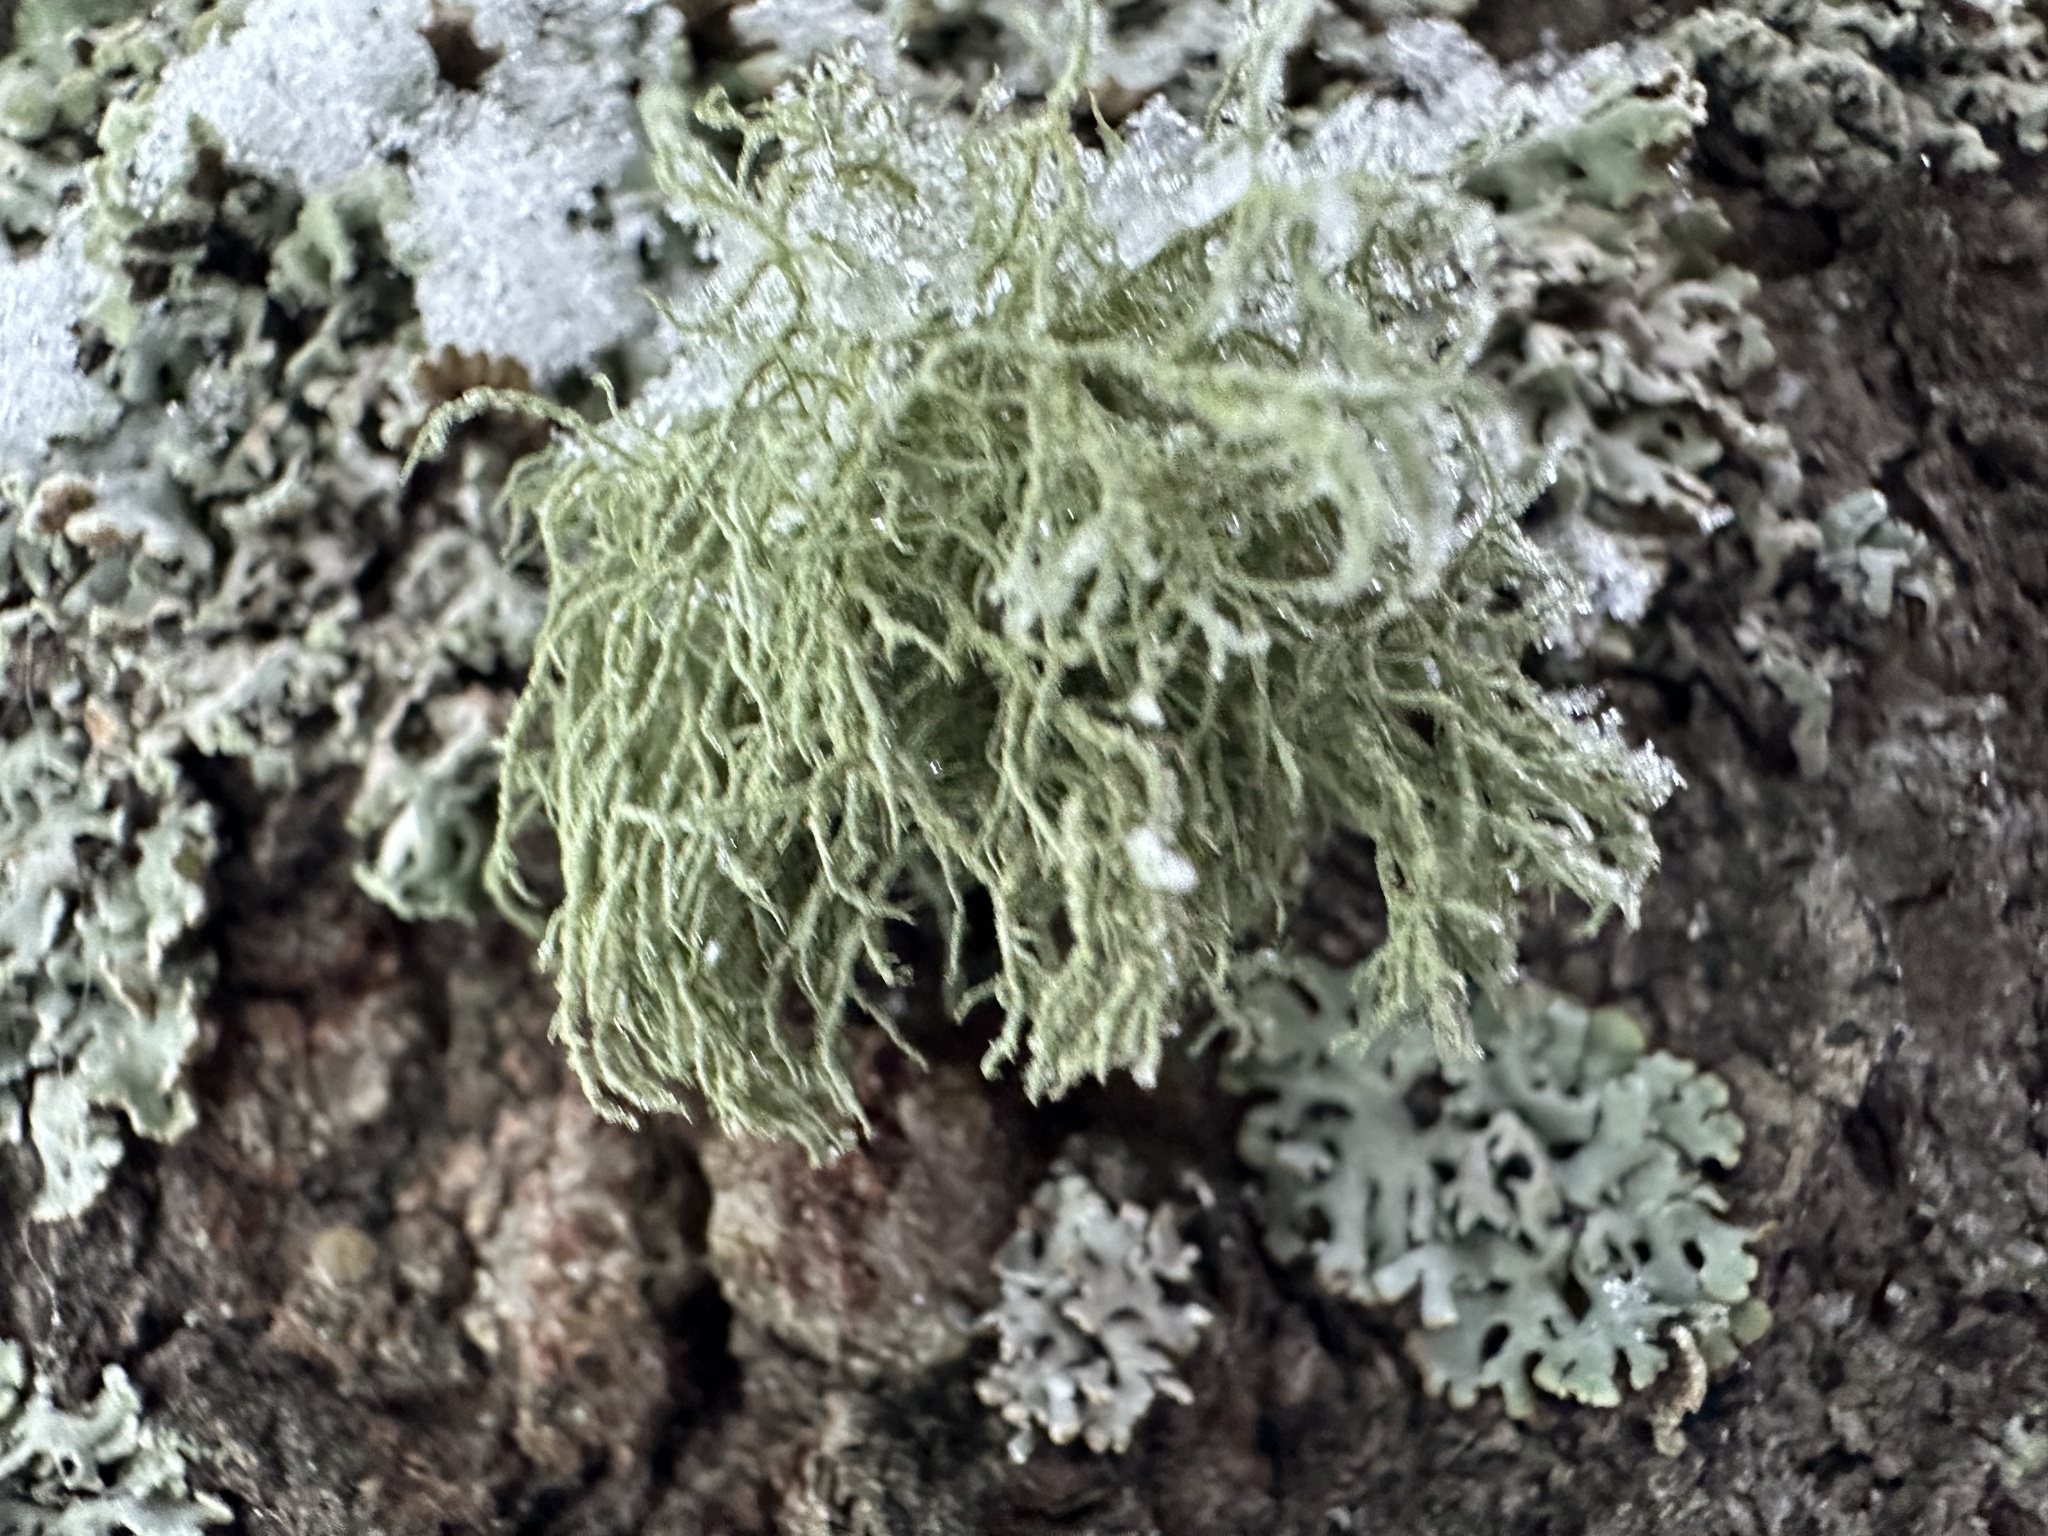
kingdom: Fungi
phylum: Ascomycota
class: Lecanoromycetes
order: Lecanorales
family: Parmeliaceae
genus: Usnea
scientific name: Usnea hirta
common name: Bristly beard lichen
